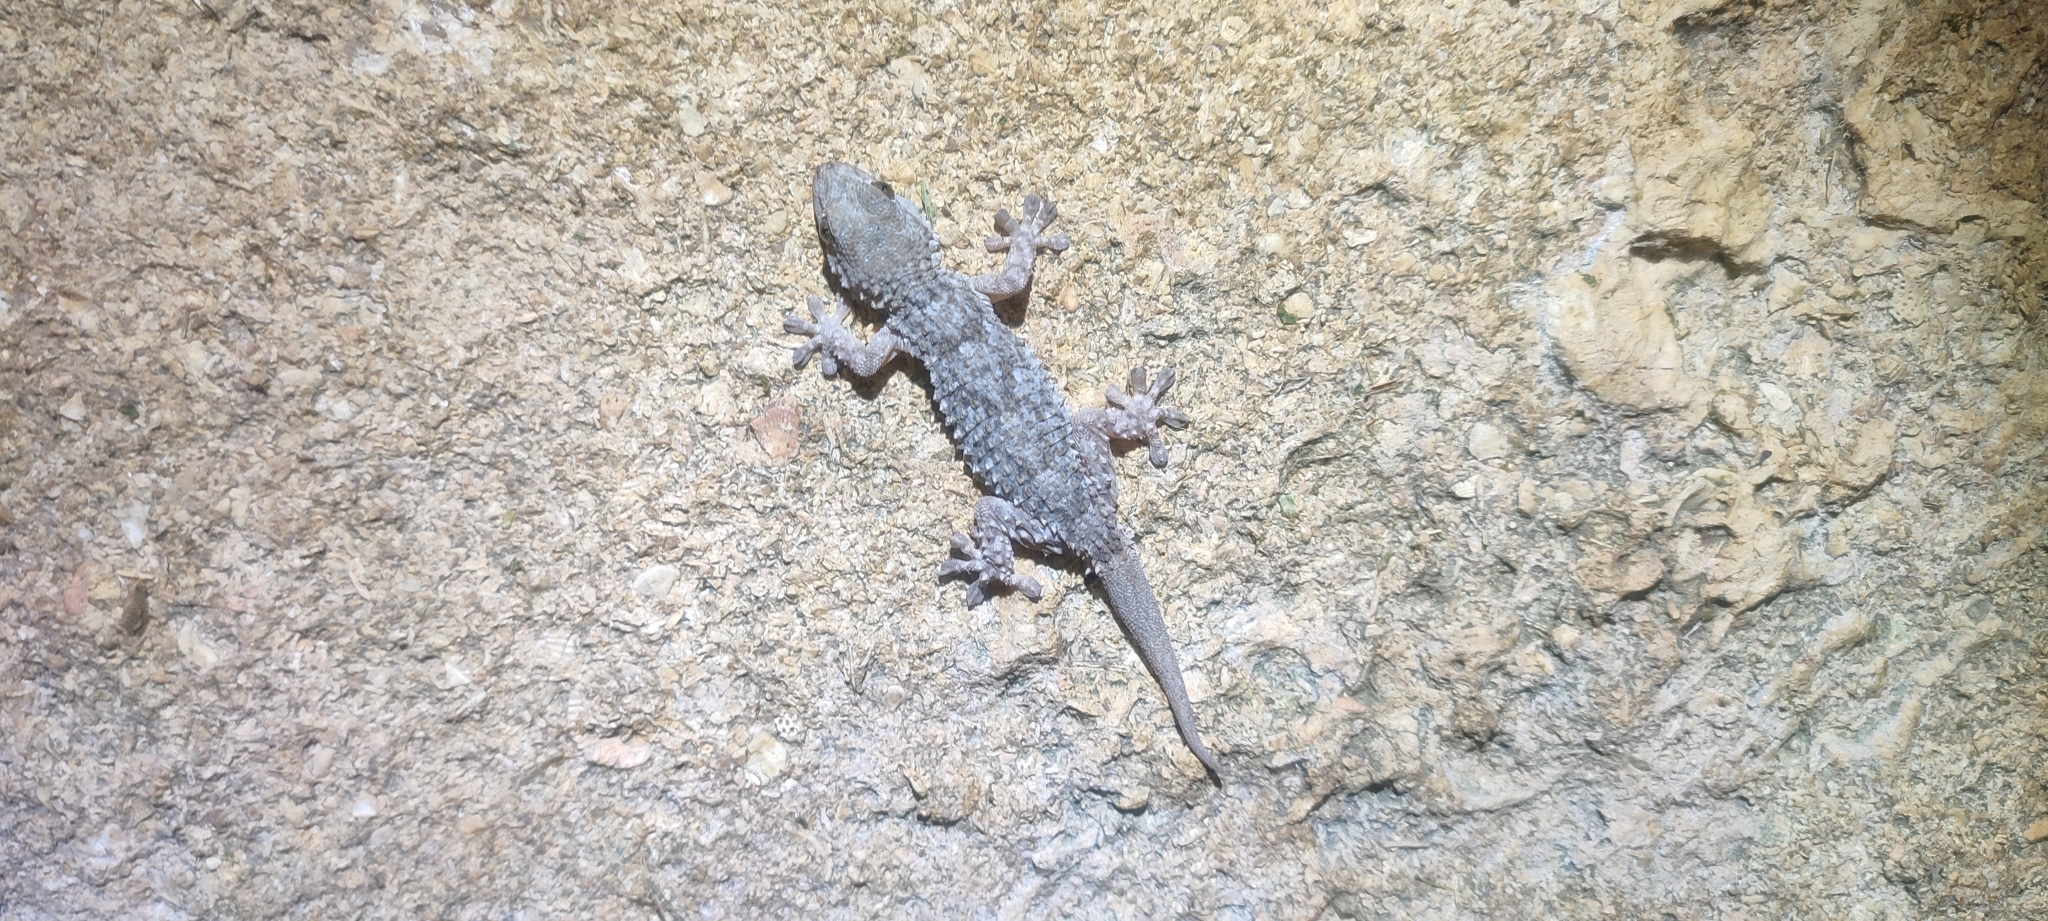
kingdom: Animalia
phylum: Chordata
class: Squamata
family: Phyllodactylidae
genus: Tarentola
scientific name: Tarentola mauritanica
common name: Moorish gecko
